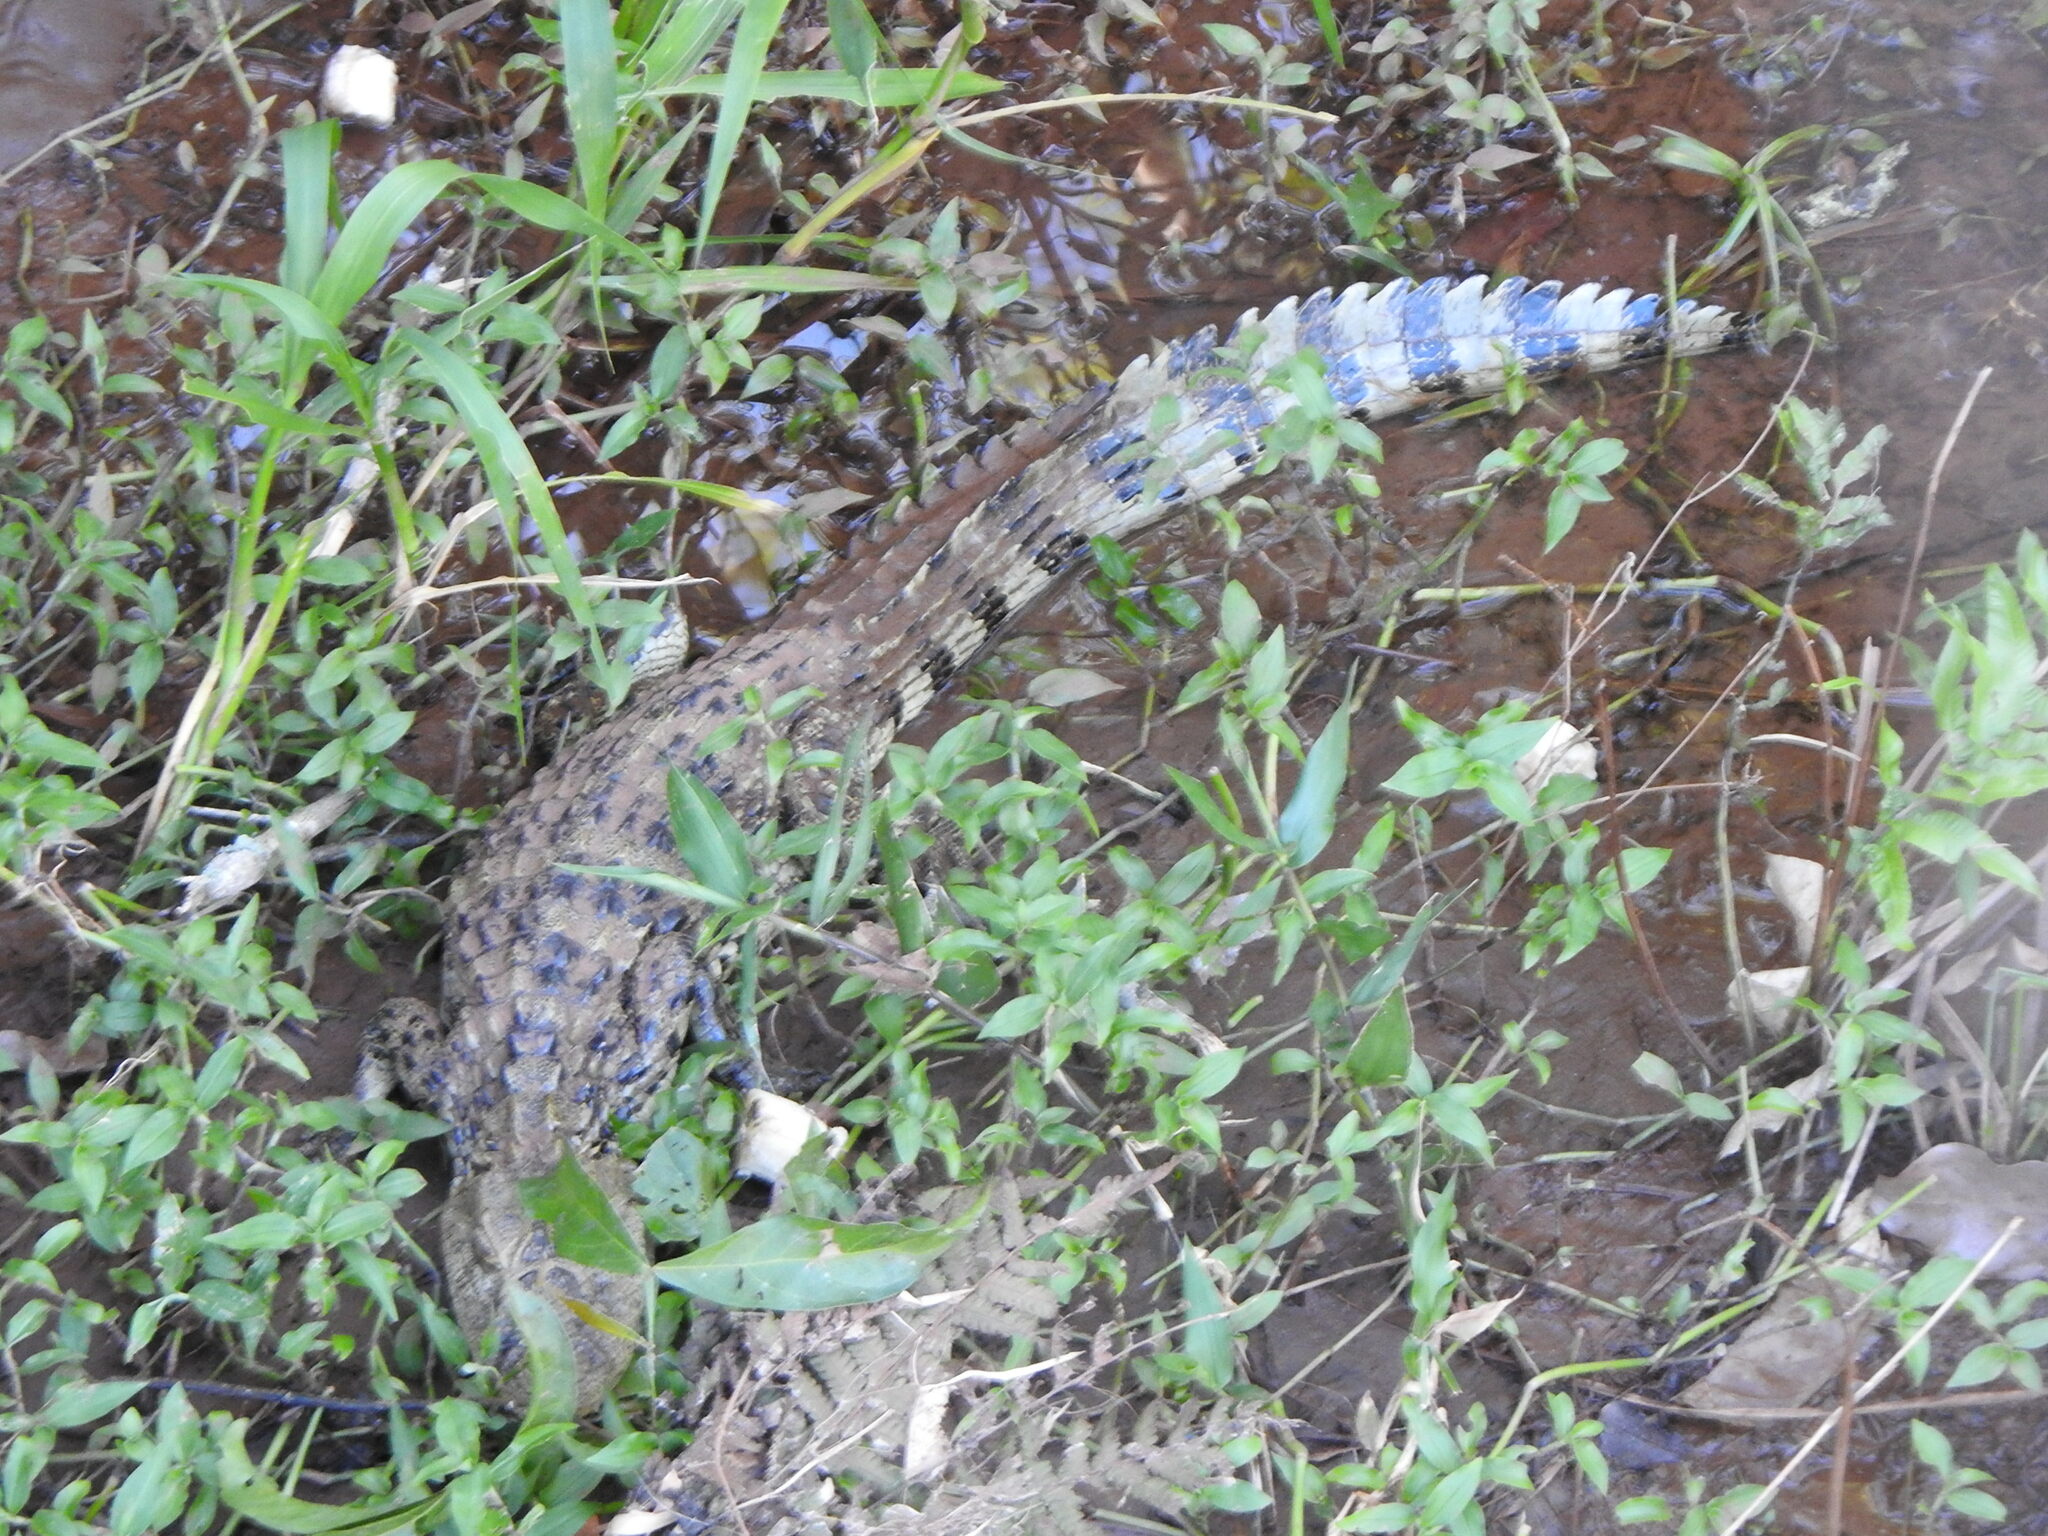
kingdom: Animalia
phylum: Chordata
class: Crocodylia
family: Alligatoridae
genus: Caiman
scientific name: Caiman latirostris
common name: Broad-snouted caiman
